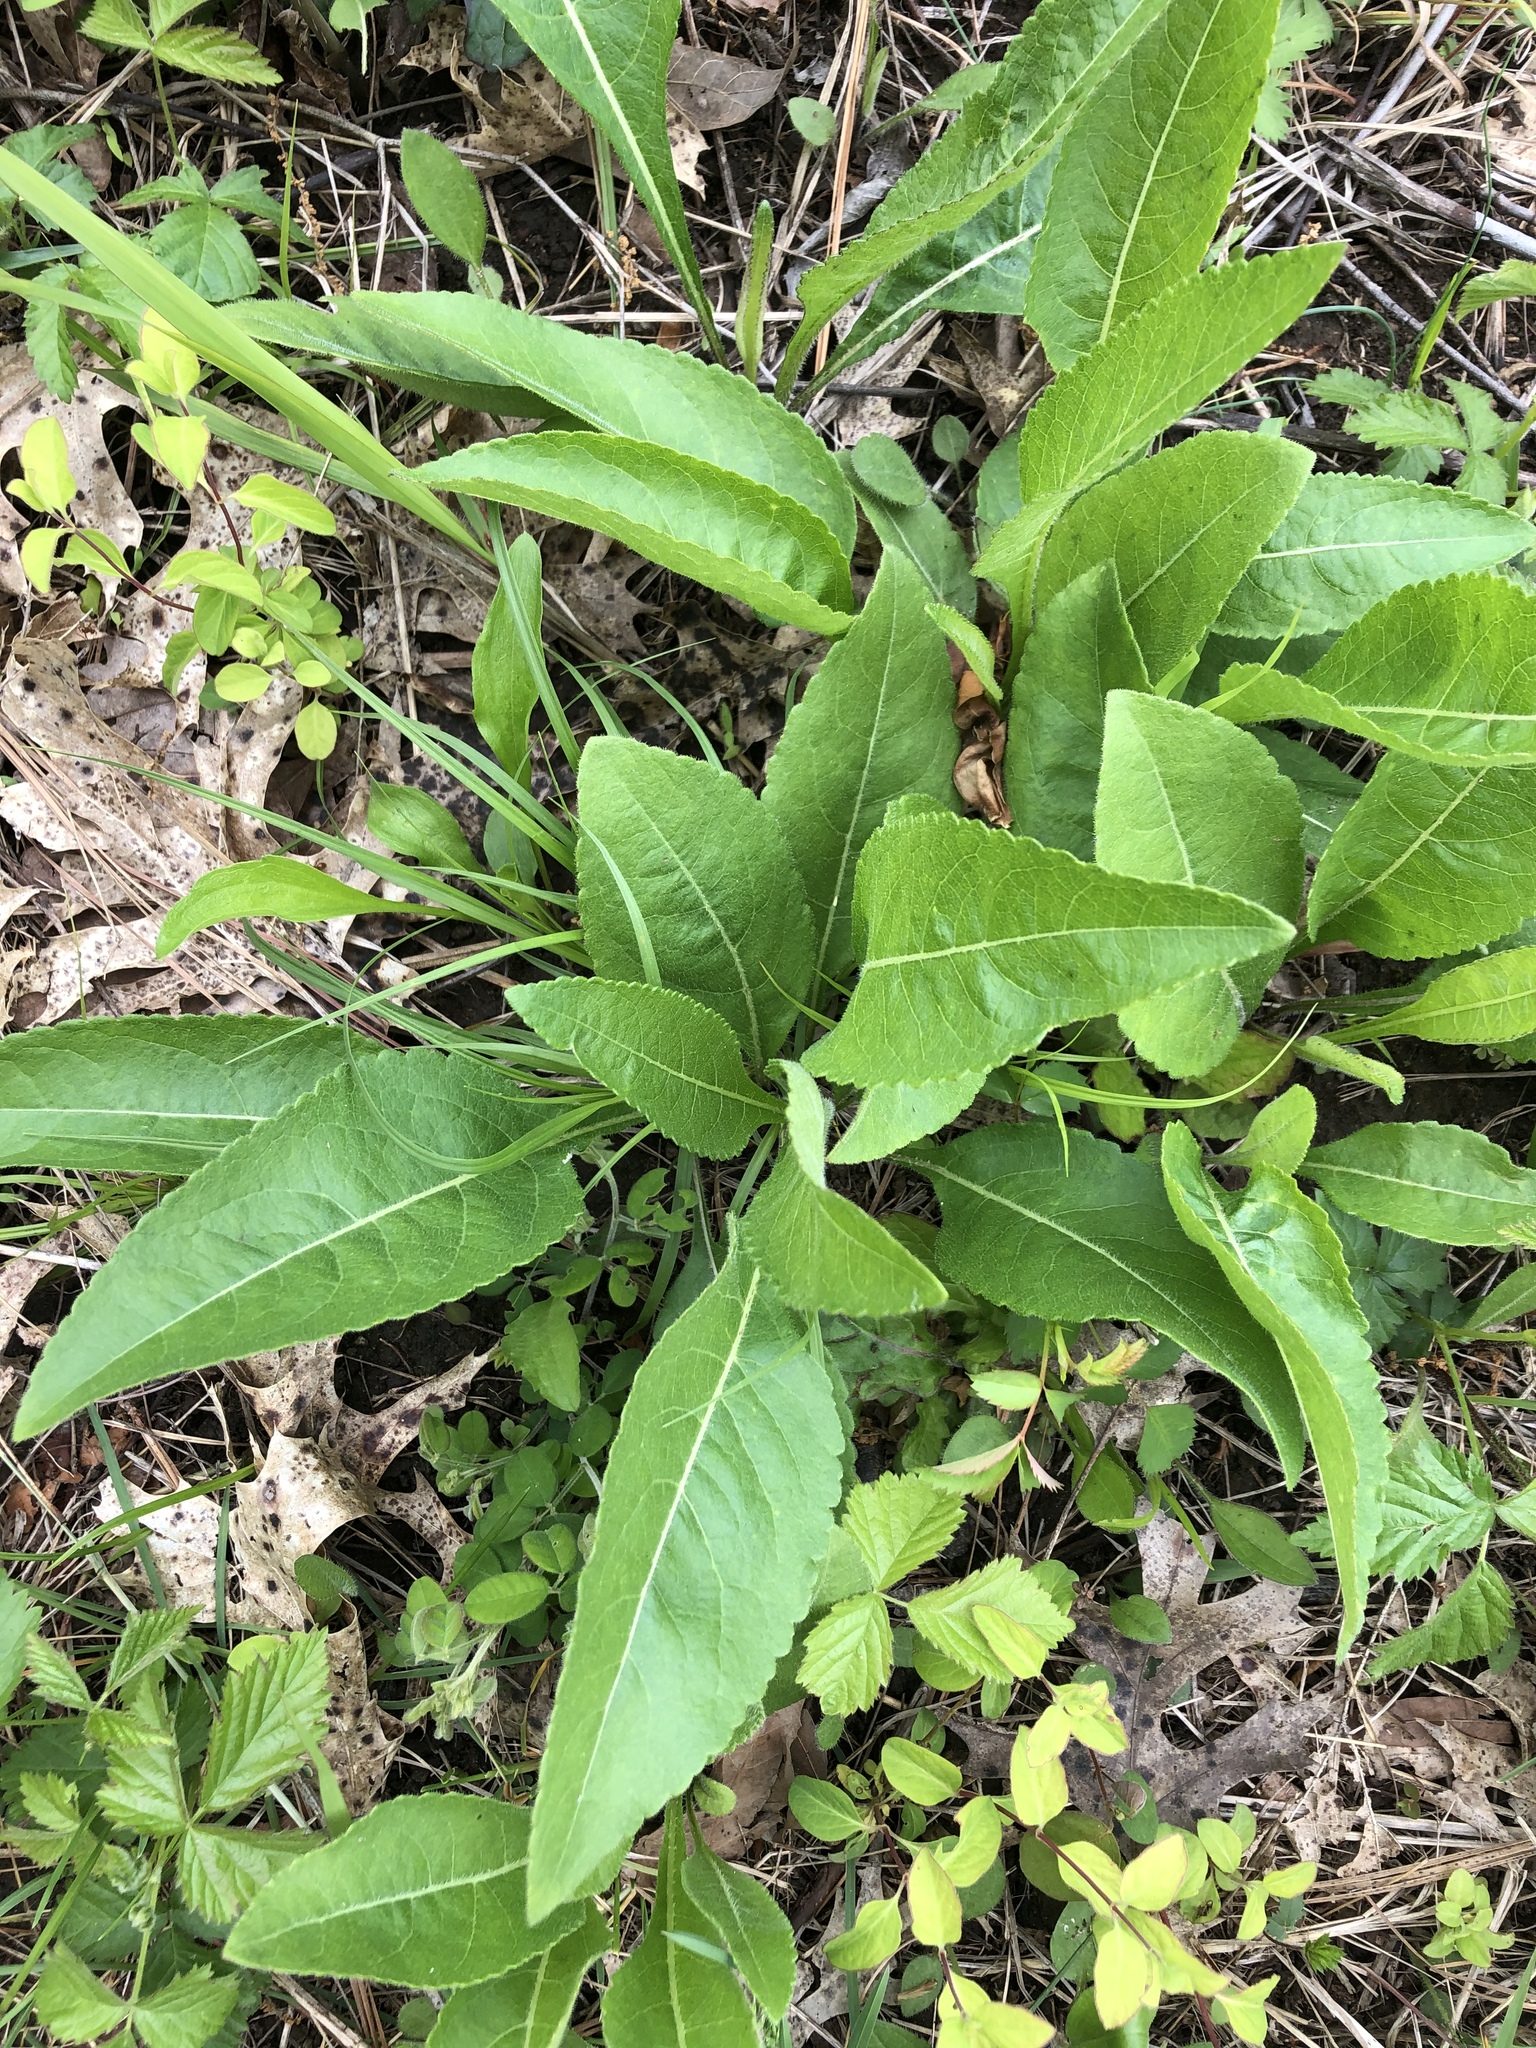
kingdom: Plantae
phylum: Tracheophyta
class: Magnoliopsida
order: Asterales
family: Asteraceae
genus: Parthenium
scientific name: Parthenium integrifolium
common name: American feverfew
